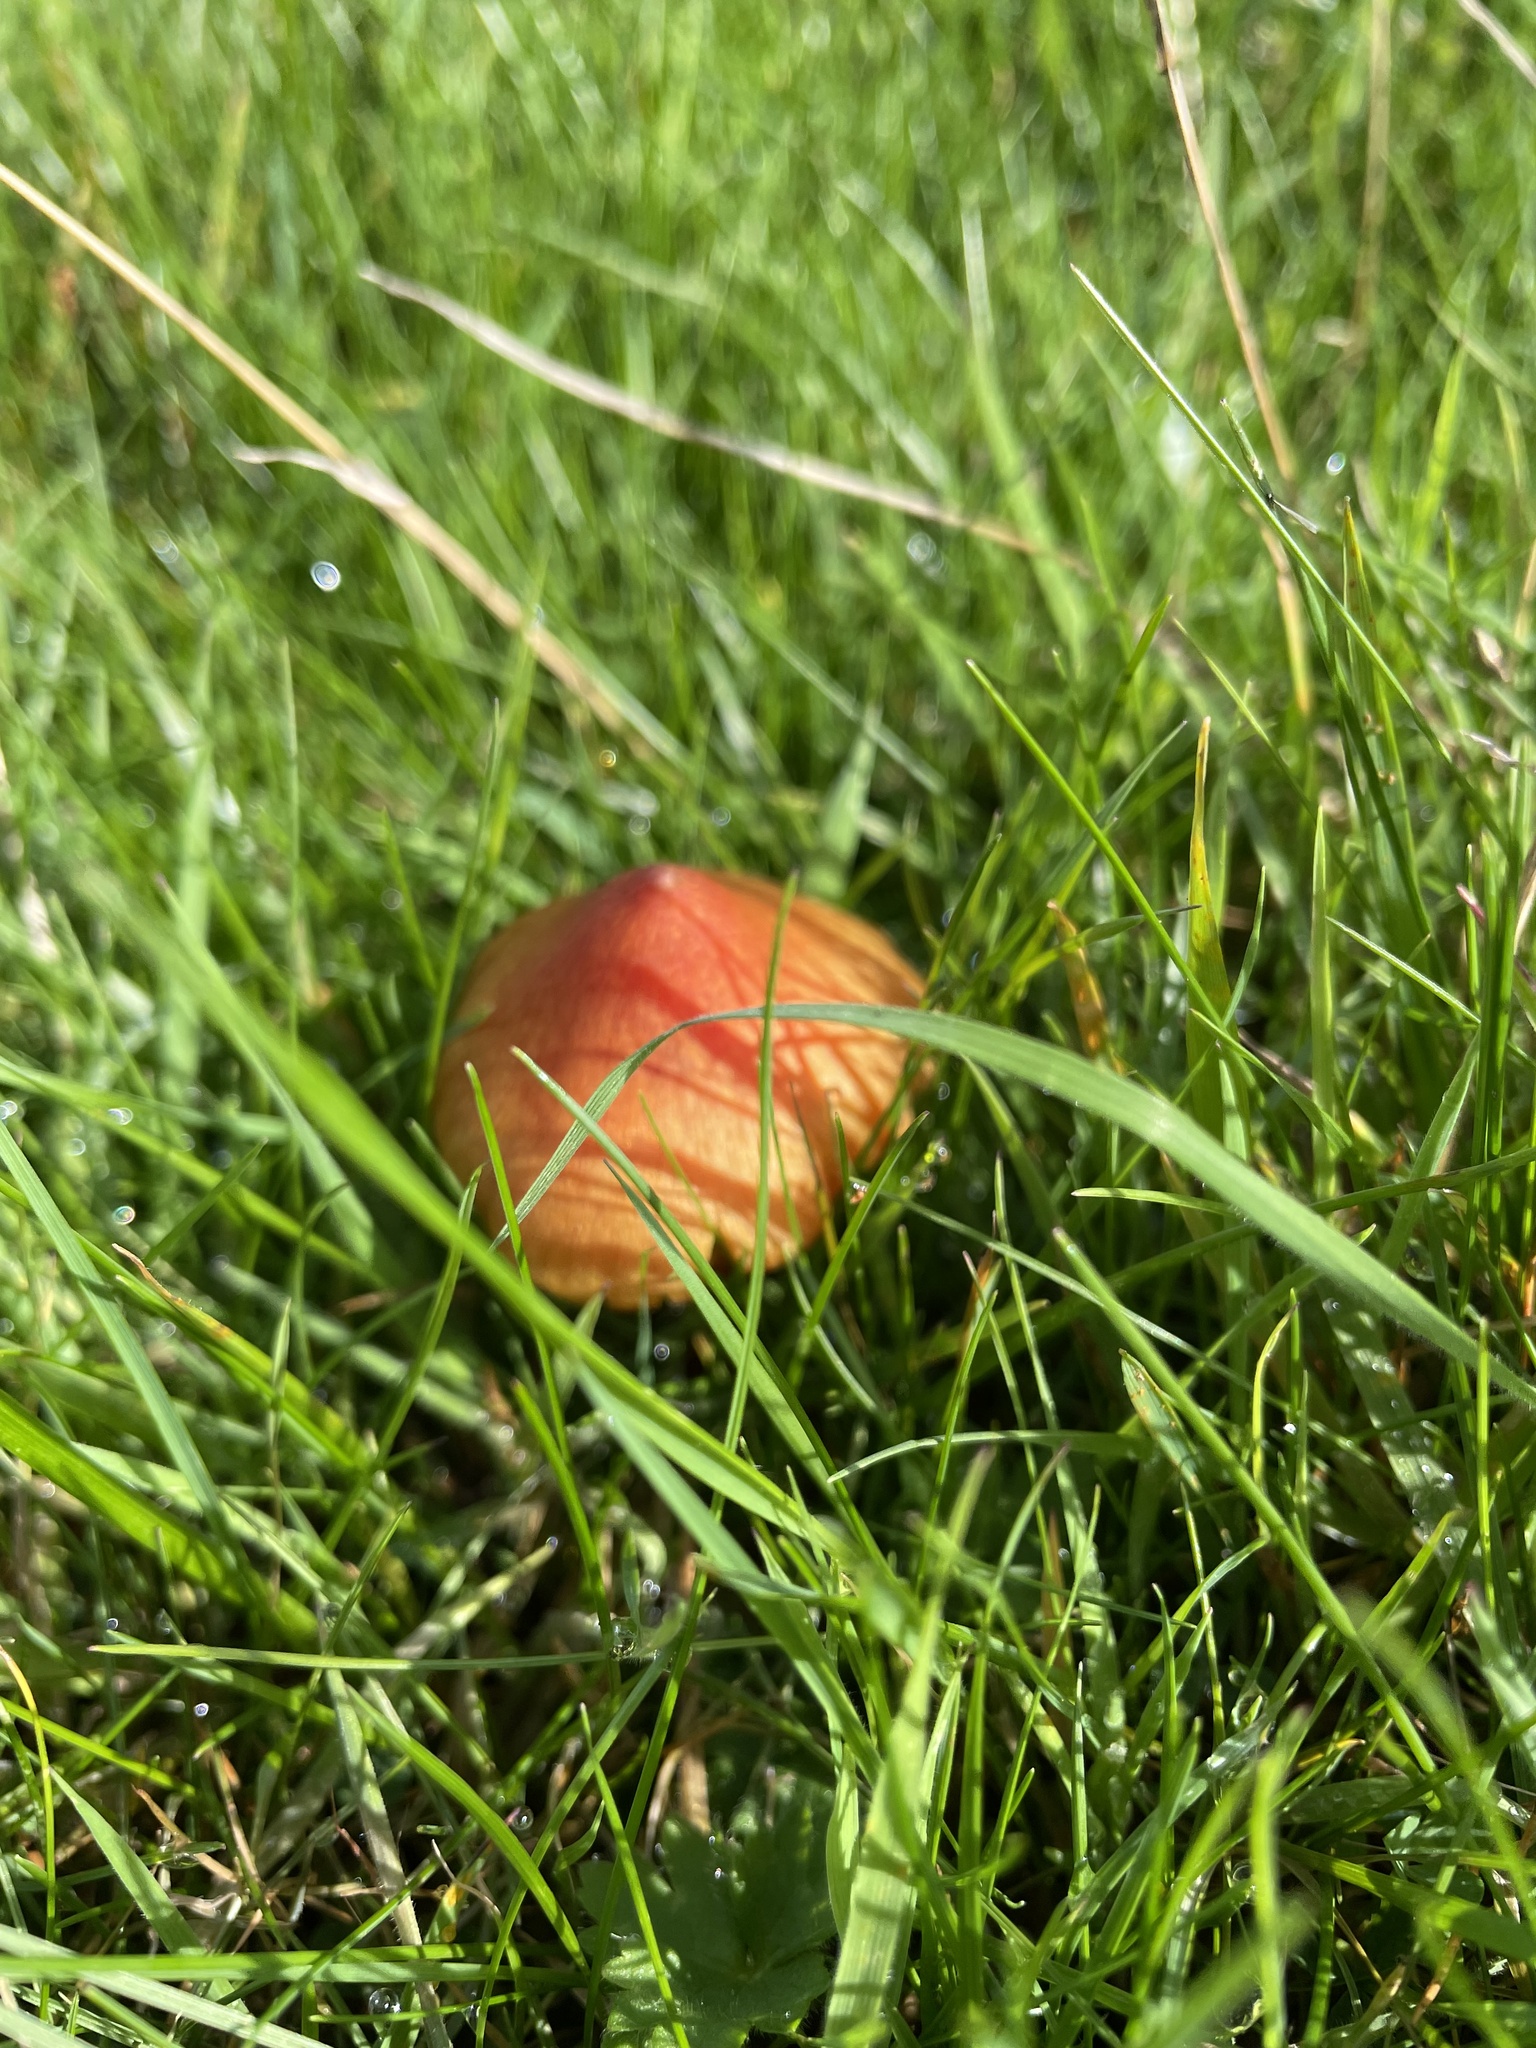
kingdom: Fungi
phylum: Basidiomycota
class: Agaricomycetes
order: Agaricales
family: Hygrophoraceae
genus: Hygrocybe
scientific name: Hygrocybe conica
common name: Blackening wax-cap
